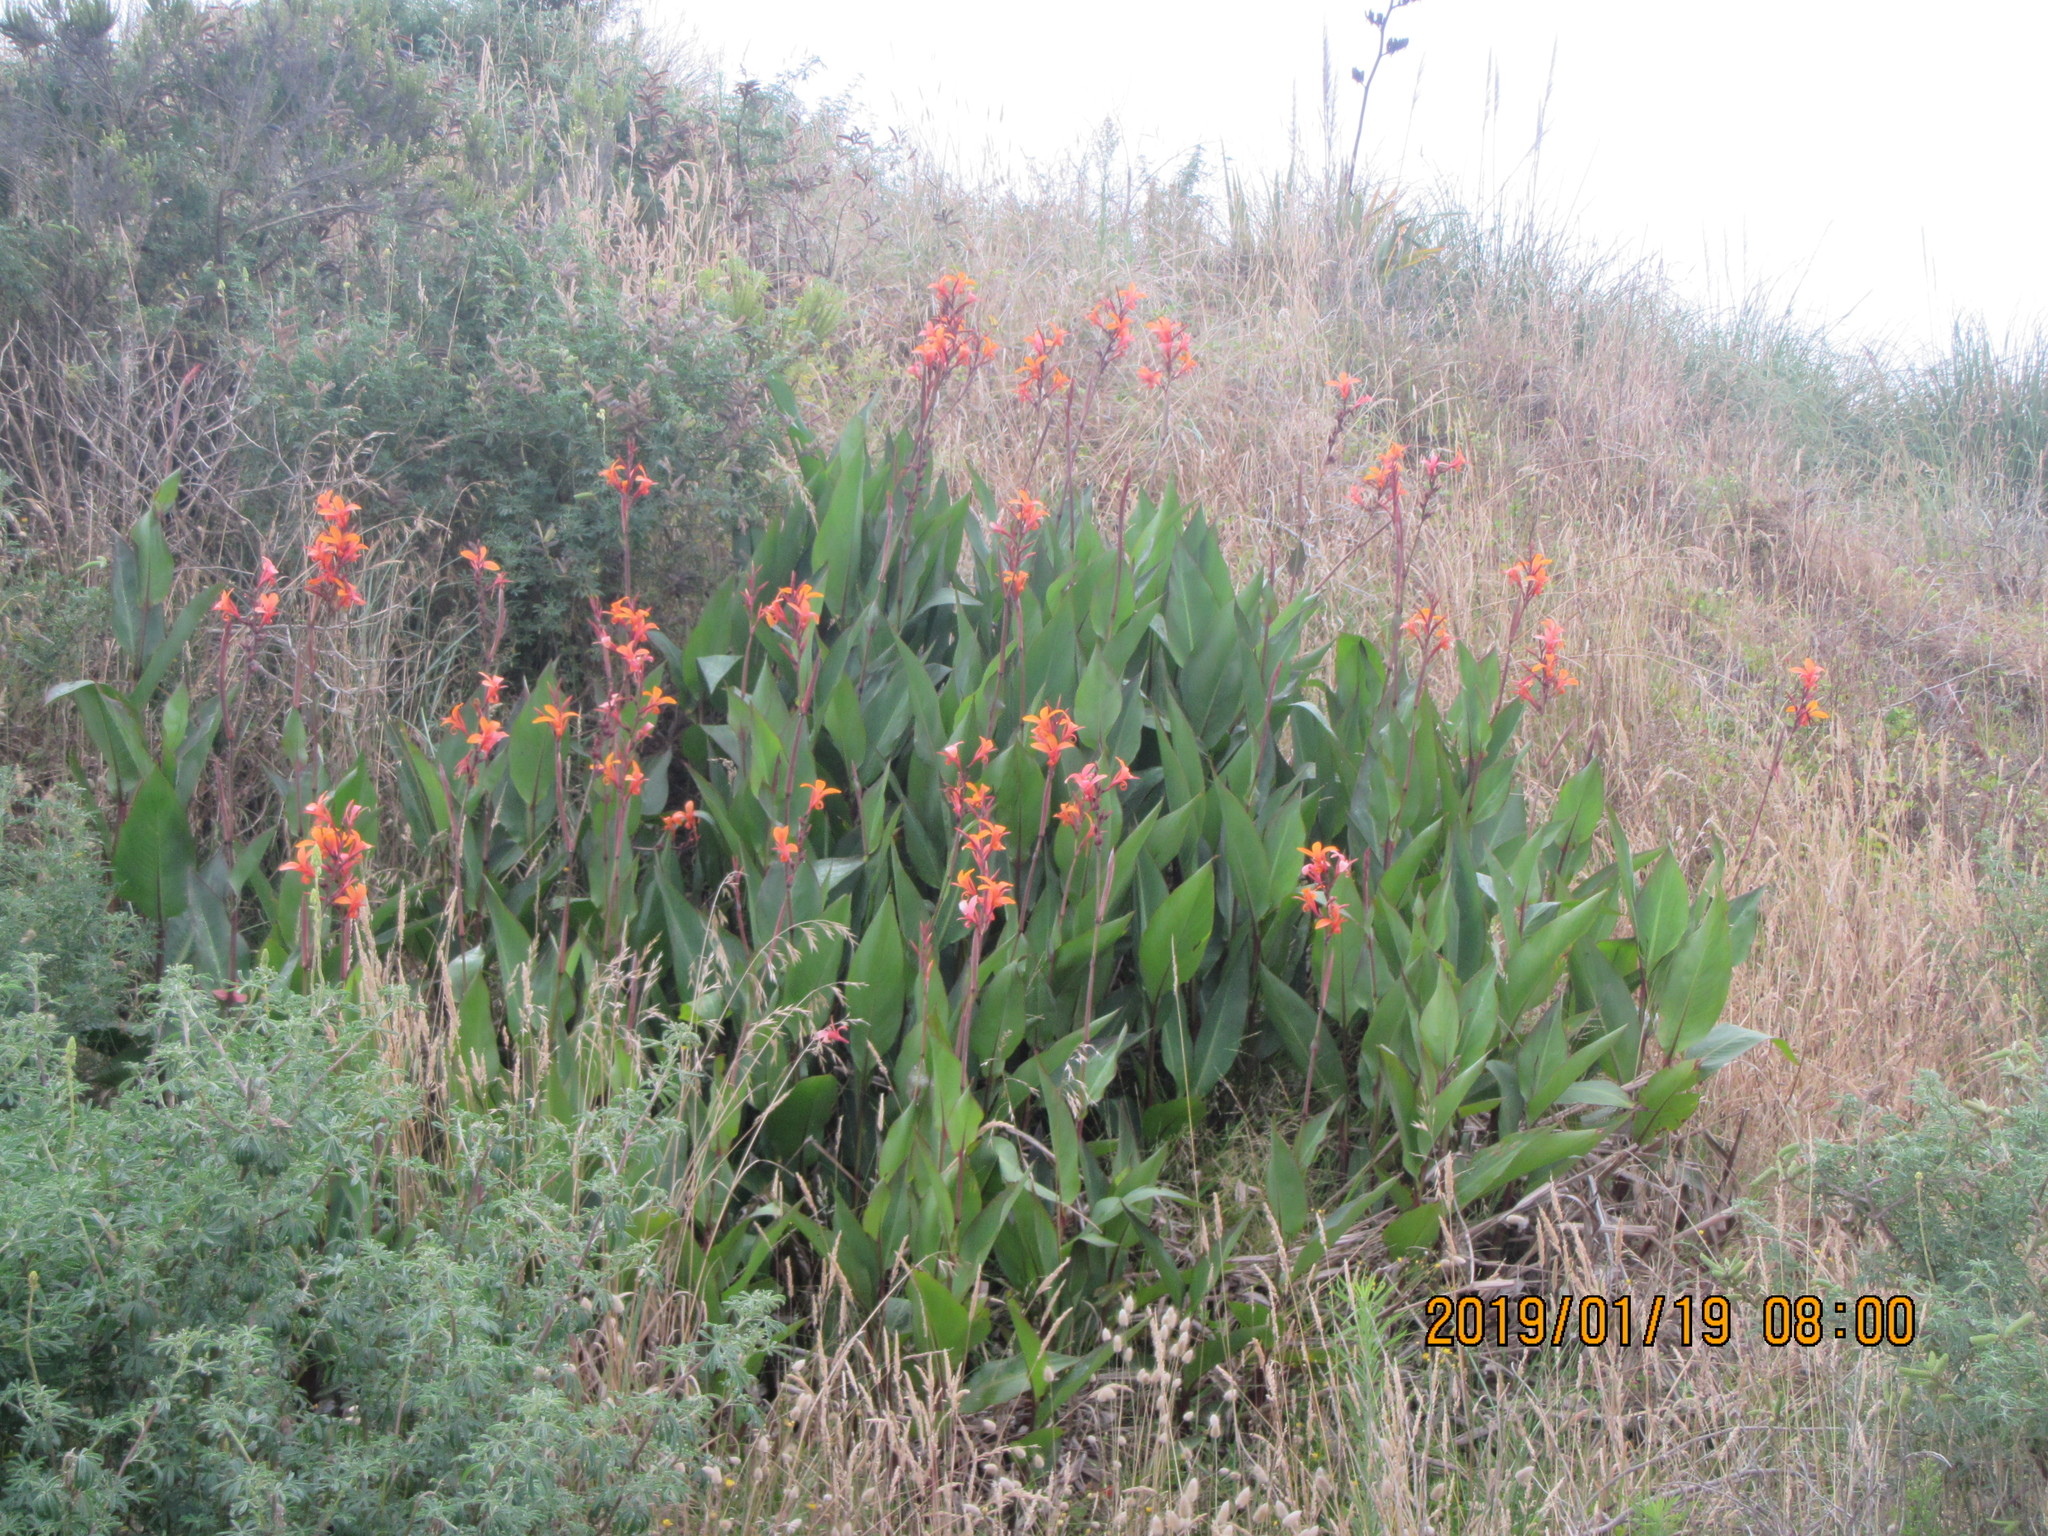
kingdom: Plantae
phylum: Tracheophyta
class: Liliopsida
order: Zingiberales
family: Cannaceae
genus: Canna
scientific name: Canna indica
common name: Indian shot
